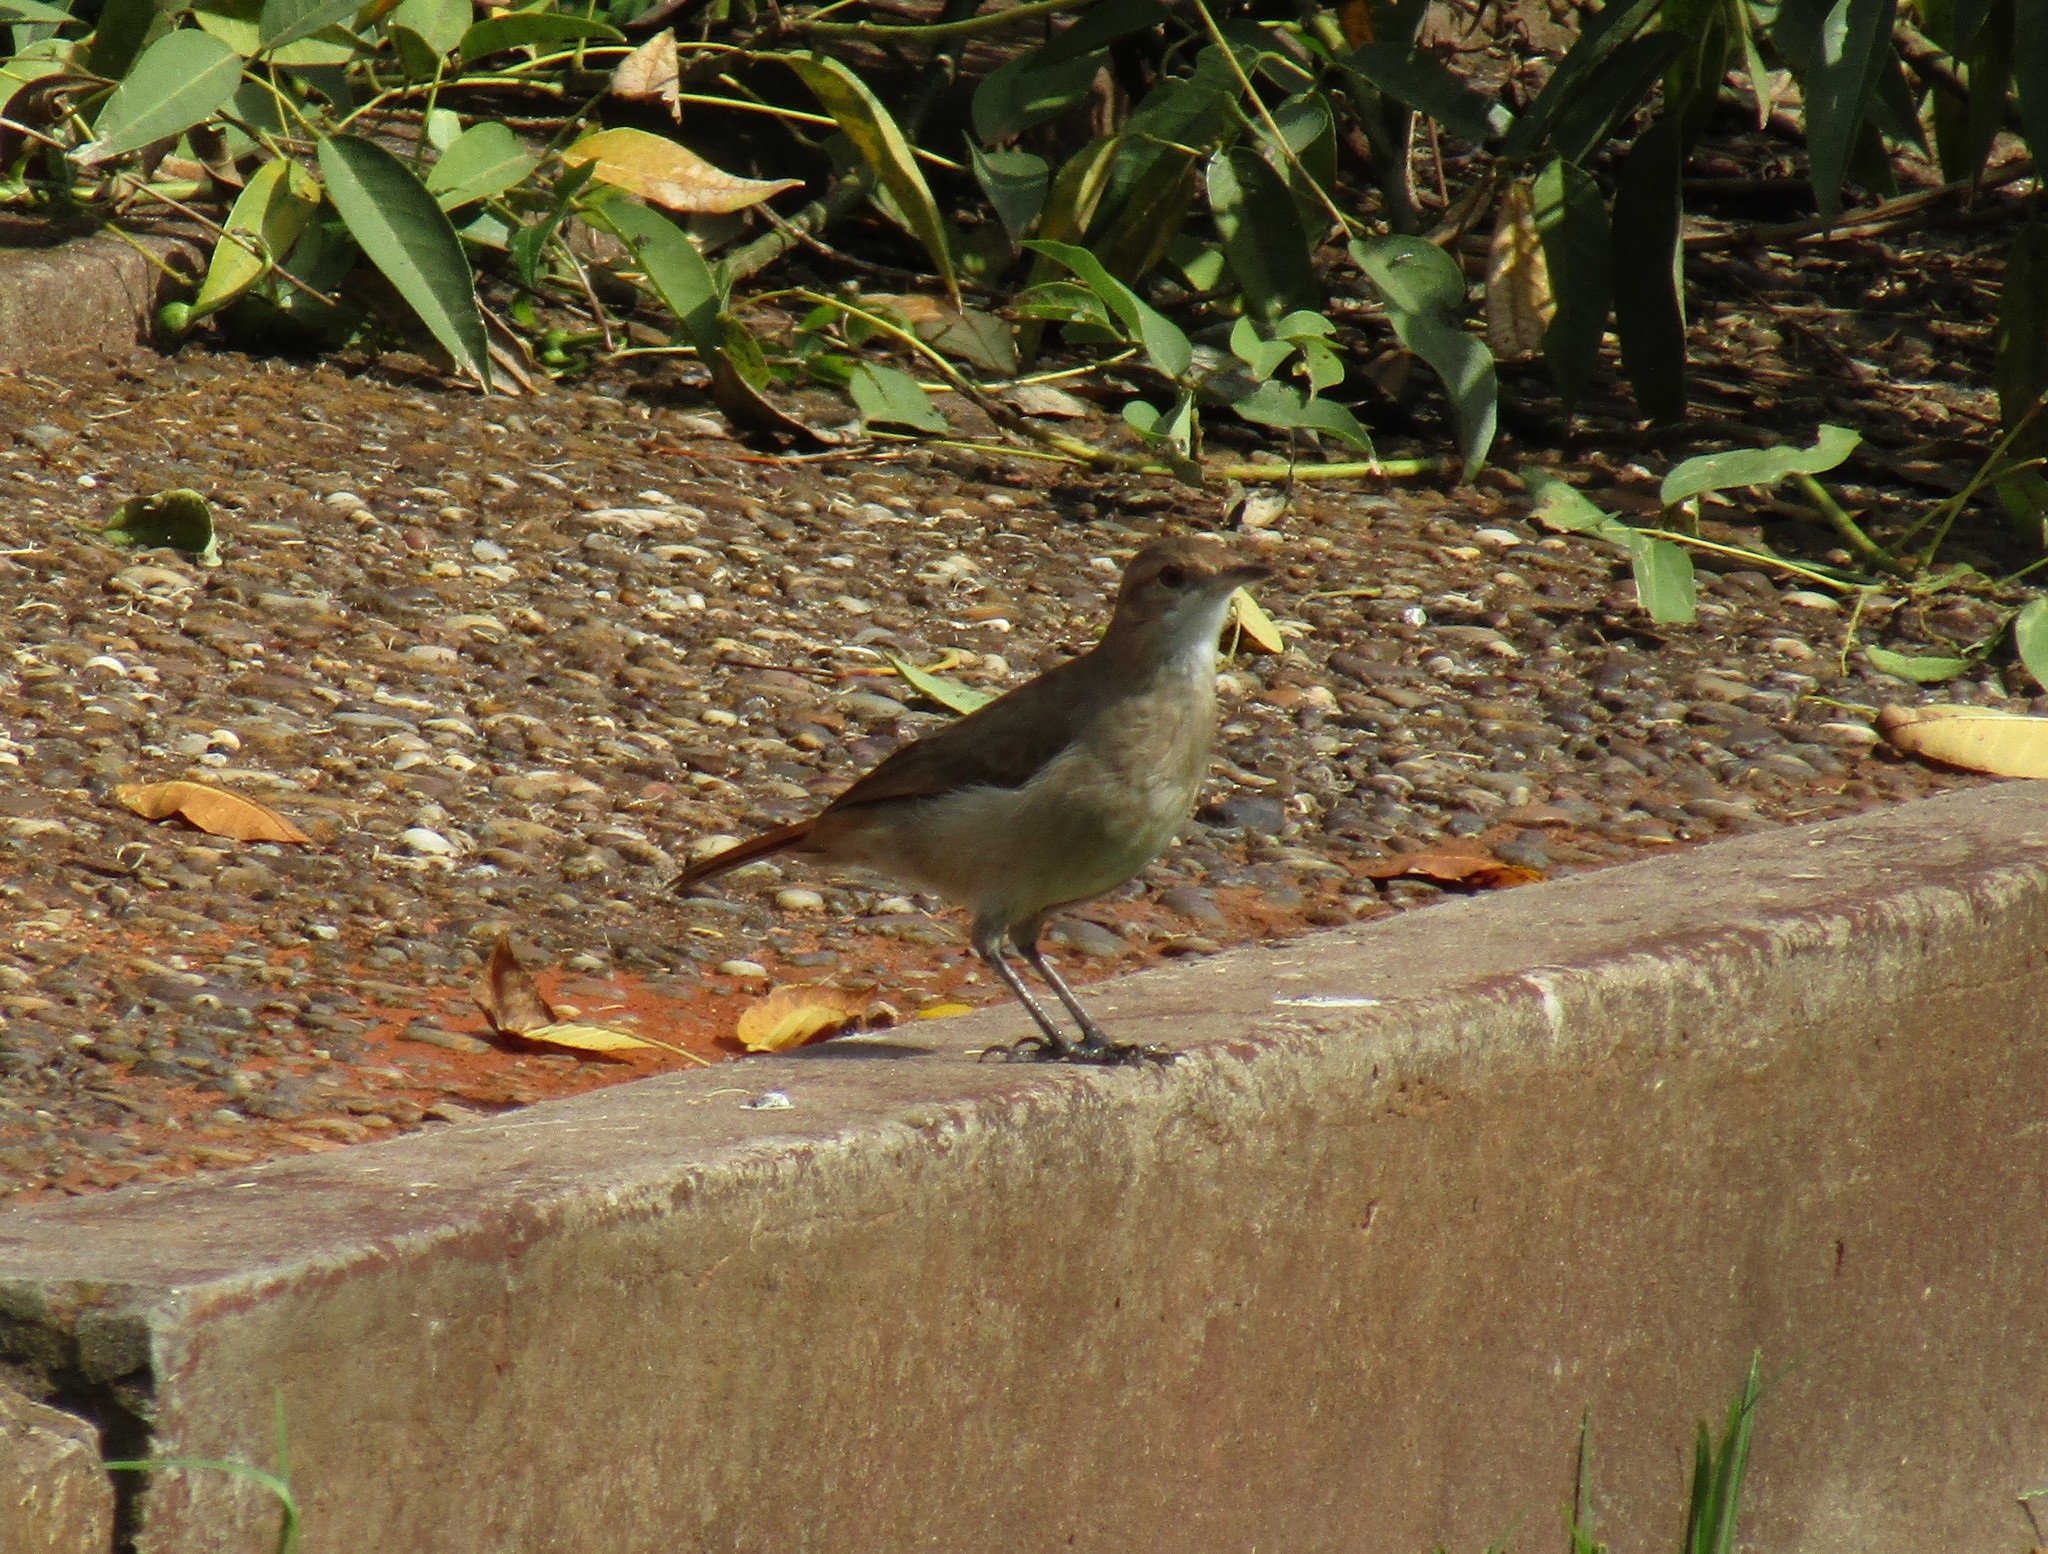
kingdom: Animalia
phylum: Chordata
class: Aves
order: Passeriformes
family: Furnariidae
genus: Furnarius
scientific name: Furnarius rufus
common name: Rufous hornero
